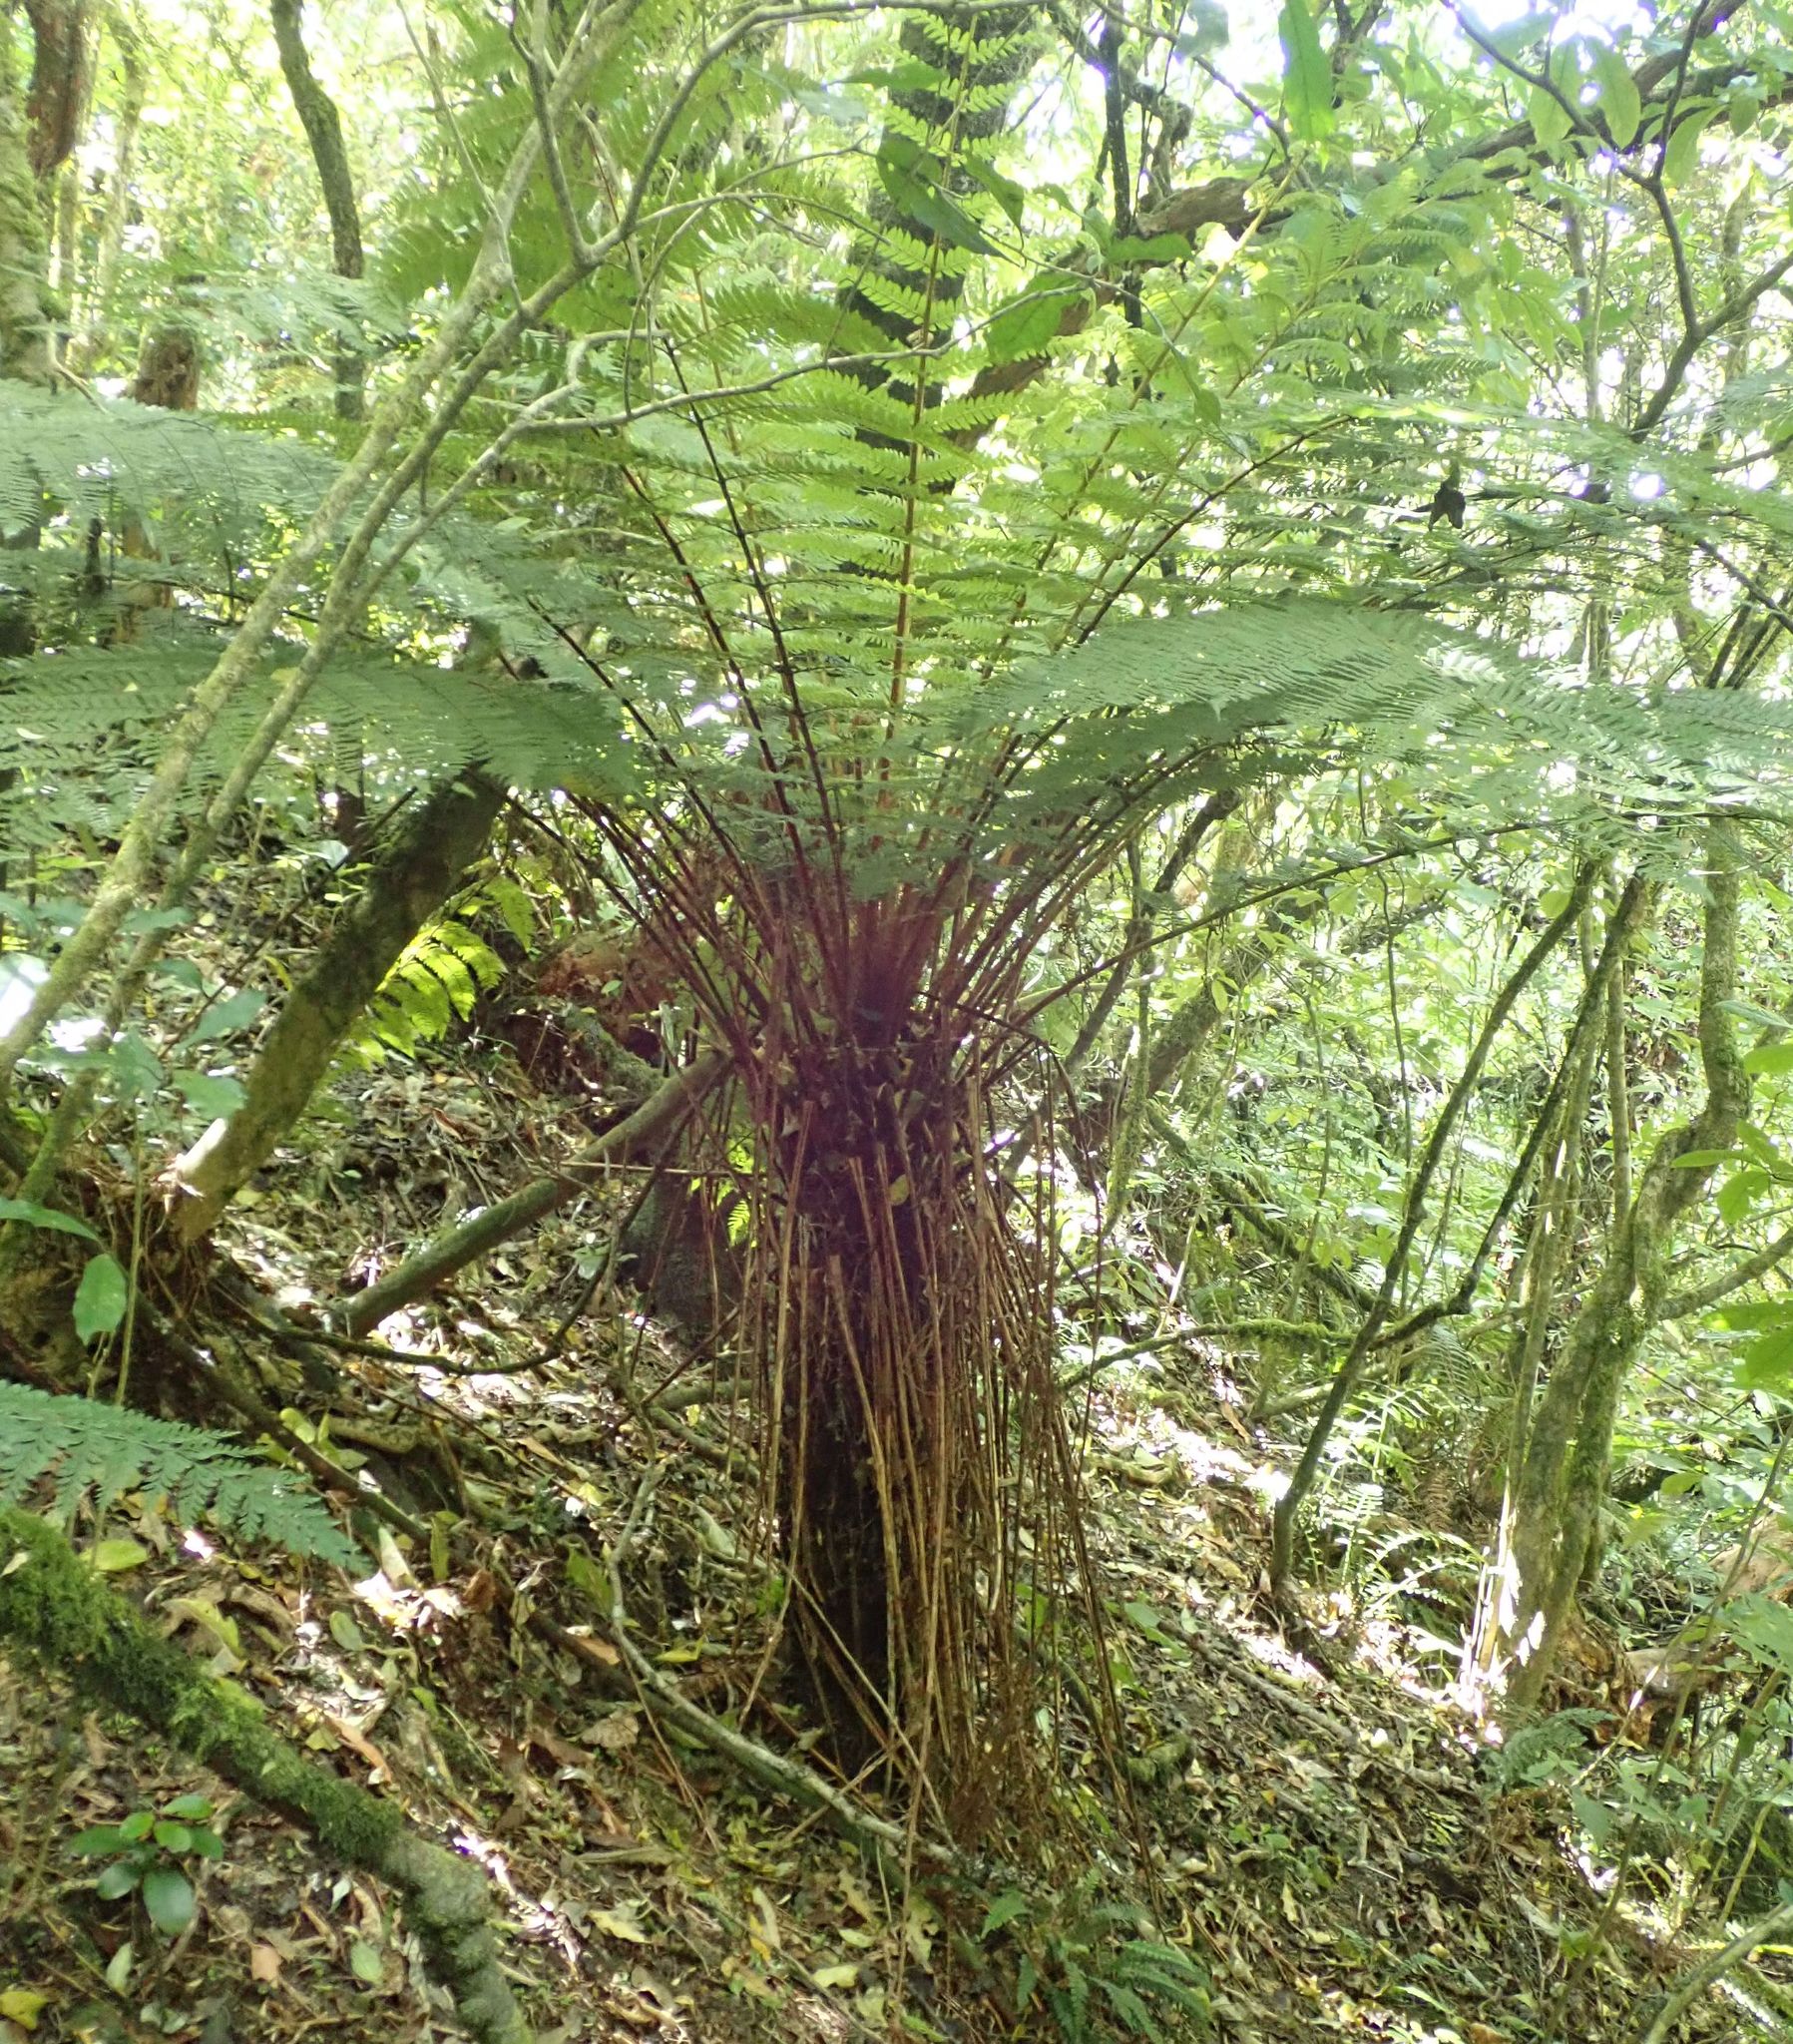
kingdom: Plantae
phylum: Tracheophyta
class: Polypodiopsida
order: Cyatheales
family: Cyatheaceae
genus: Alsophila
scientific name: Alsophila smithii
